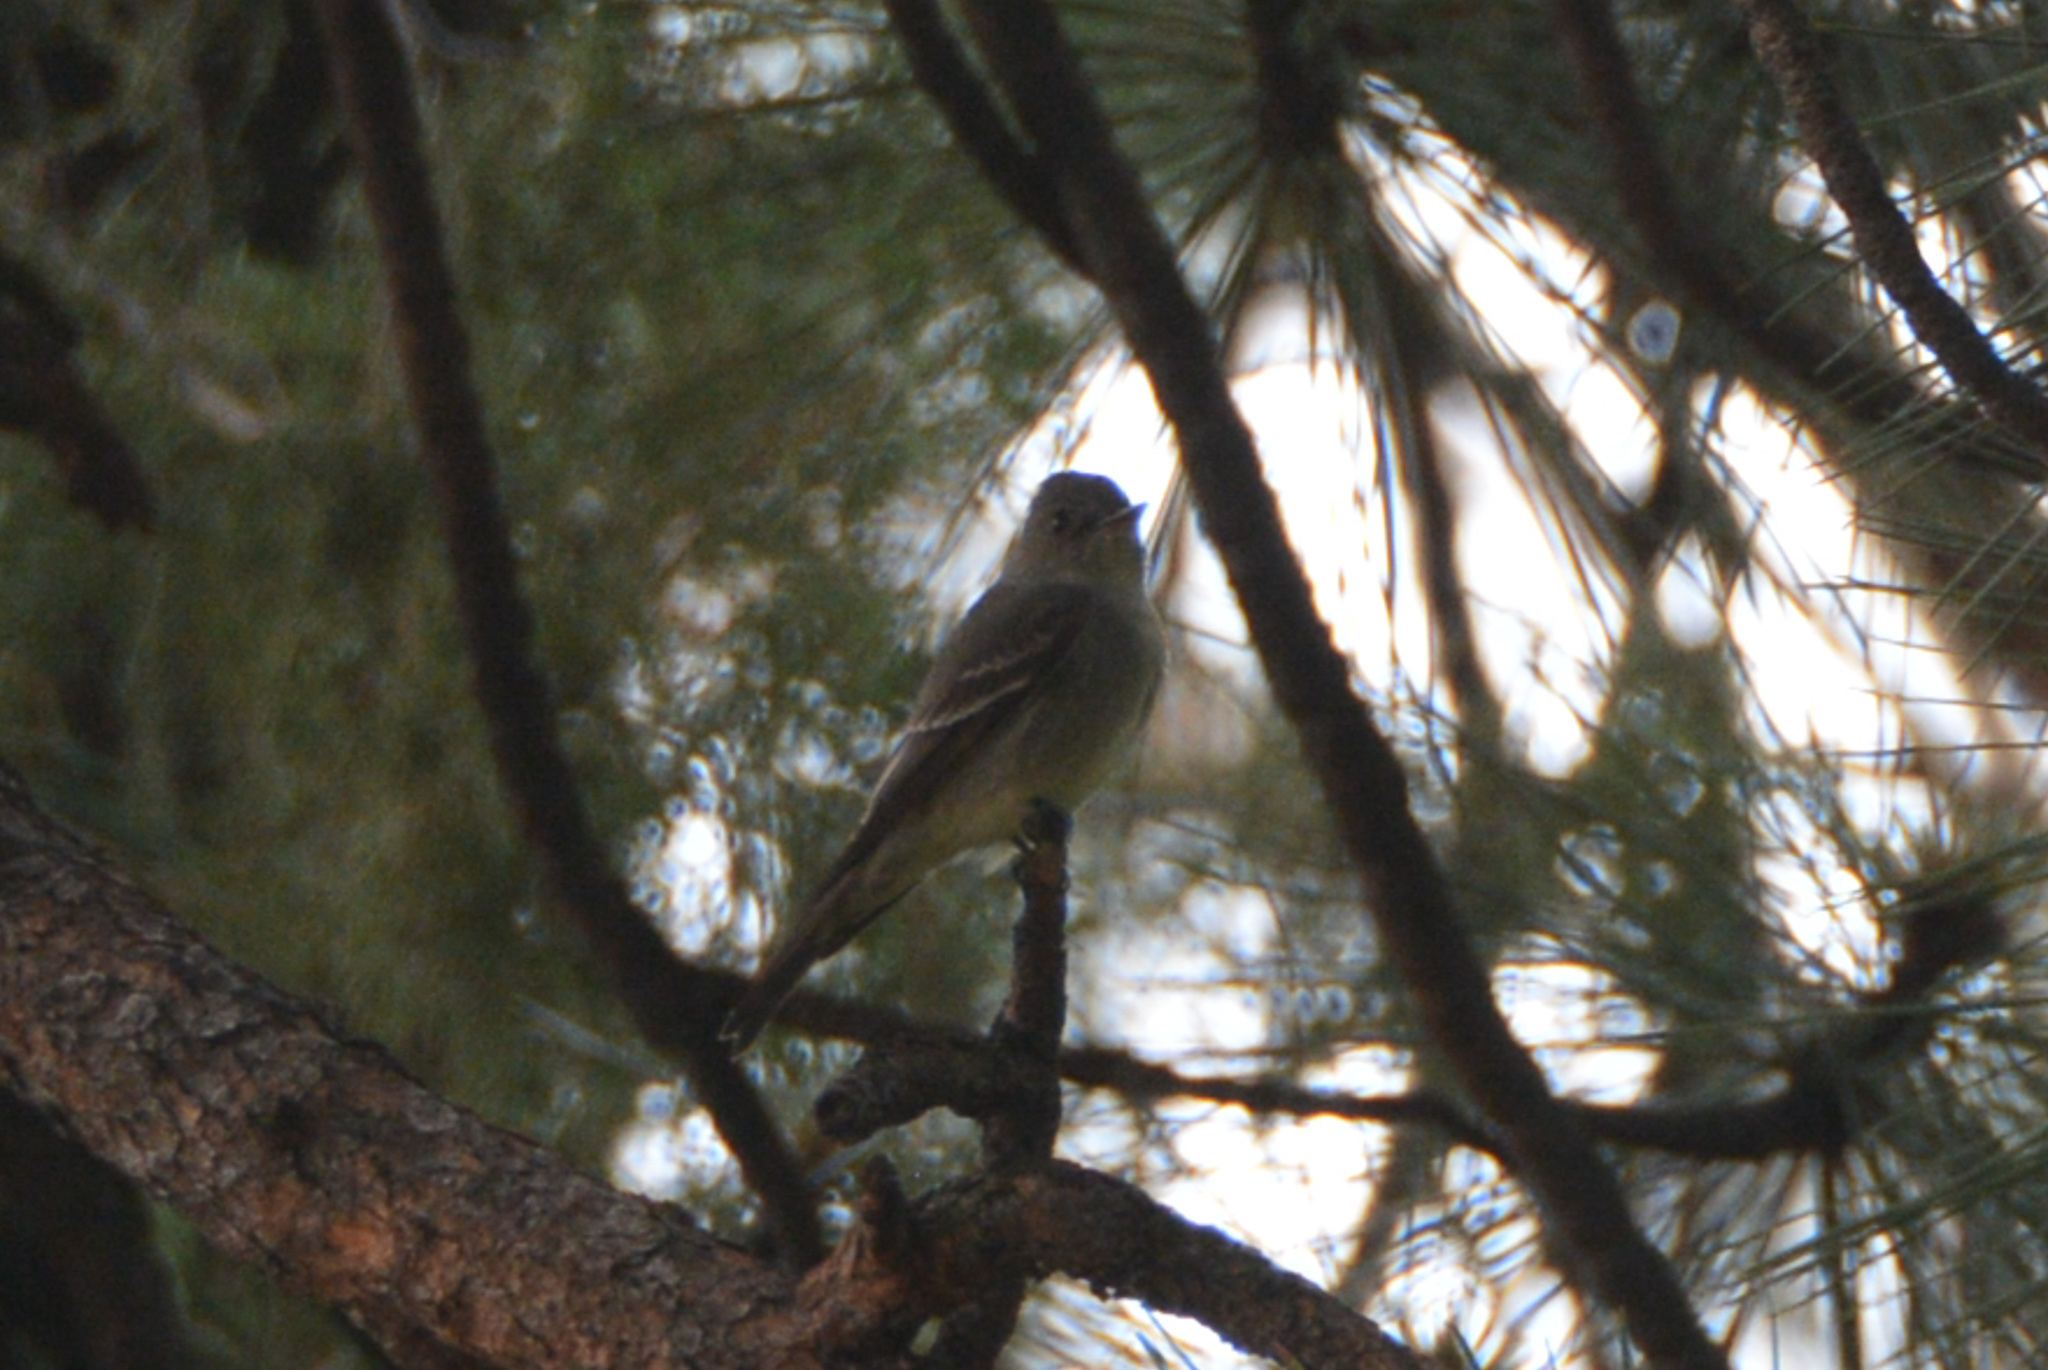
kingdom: Animalia
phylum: Chordata
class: Aves
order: Passeriformes
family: Tyrannidae
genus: Contopus
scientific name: Contopus sordidulus
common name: Western wood-pewee
